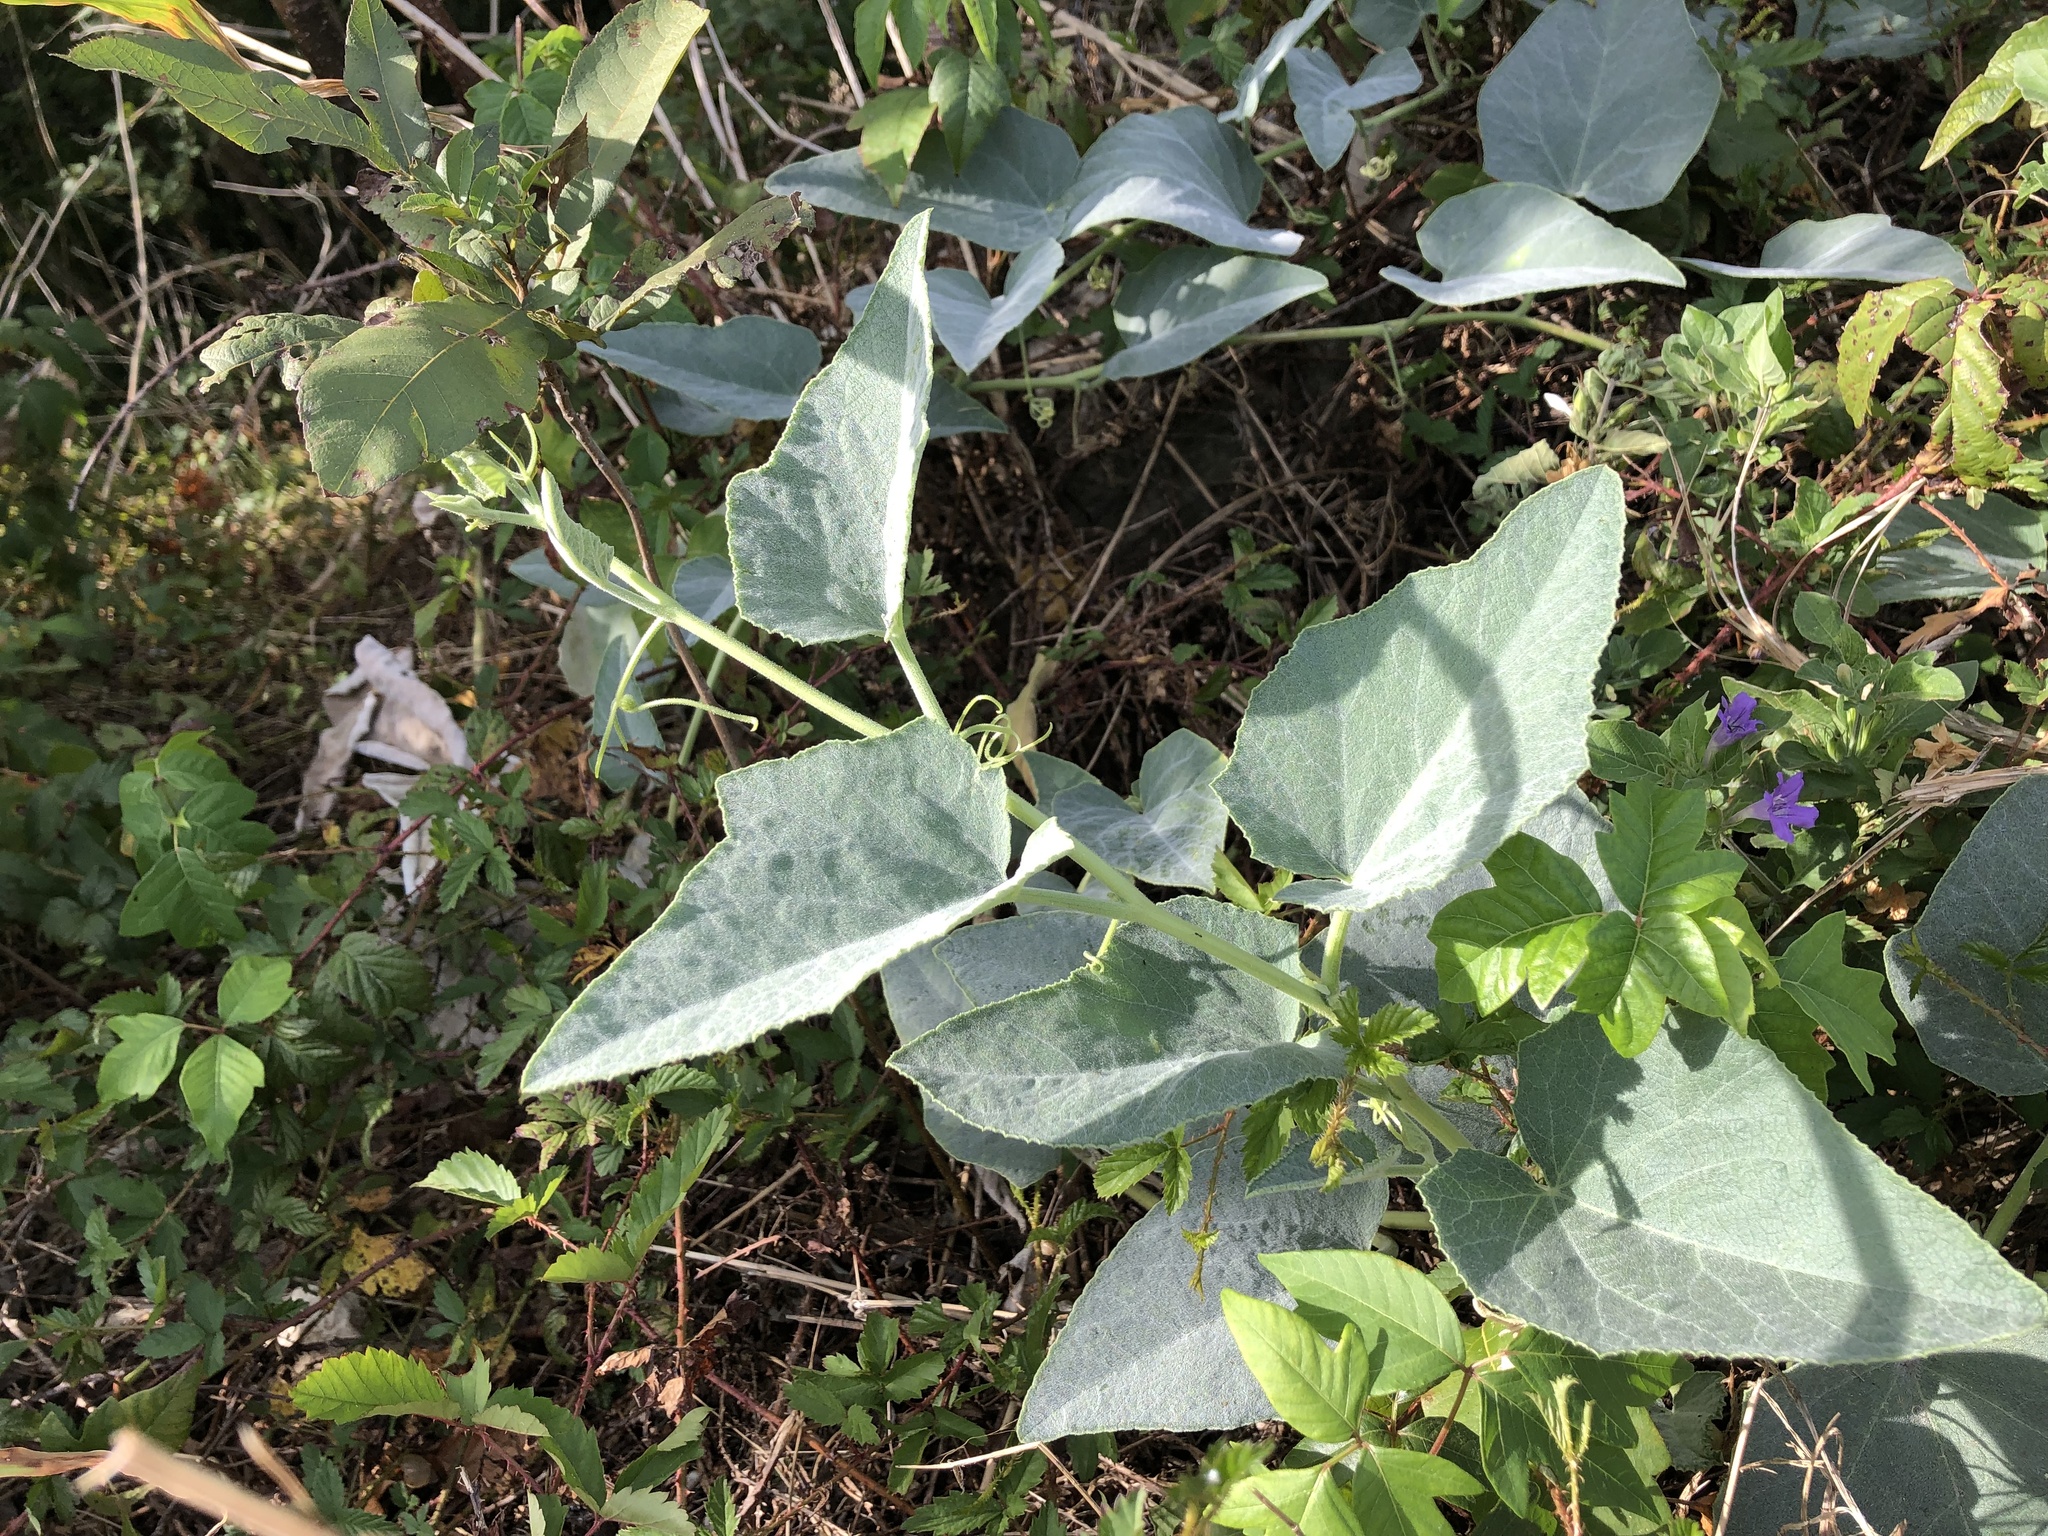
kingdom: Plantae
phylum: Tracheophyta
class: Magnoliopsida
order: Cucurbitales
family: Cucurbitaceae
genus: Cucurbita
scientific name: Cucurbita foetidissima
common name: Buffalo gourd
